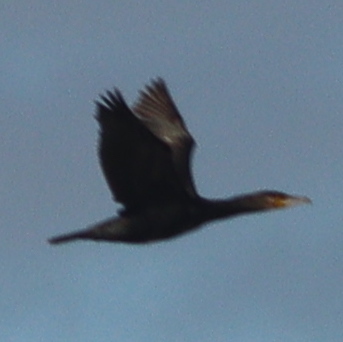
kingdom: Animalia
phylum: Chordata
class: Aves
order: Suliformes
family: Phalacrocoracidae
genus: Phalacrocorax
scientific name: Phalacrocorax carbo
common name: Great cormorant
